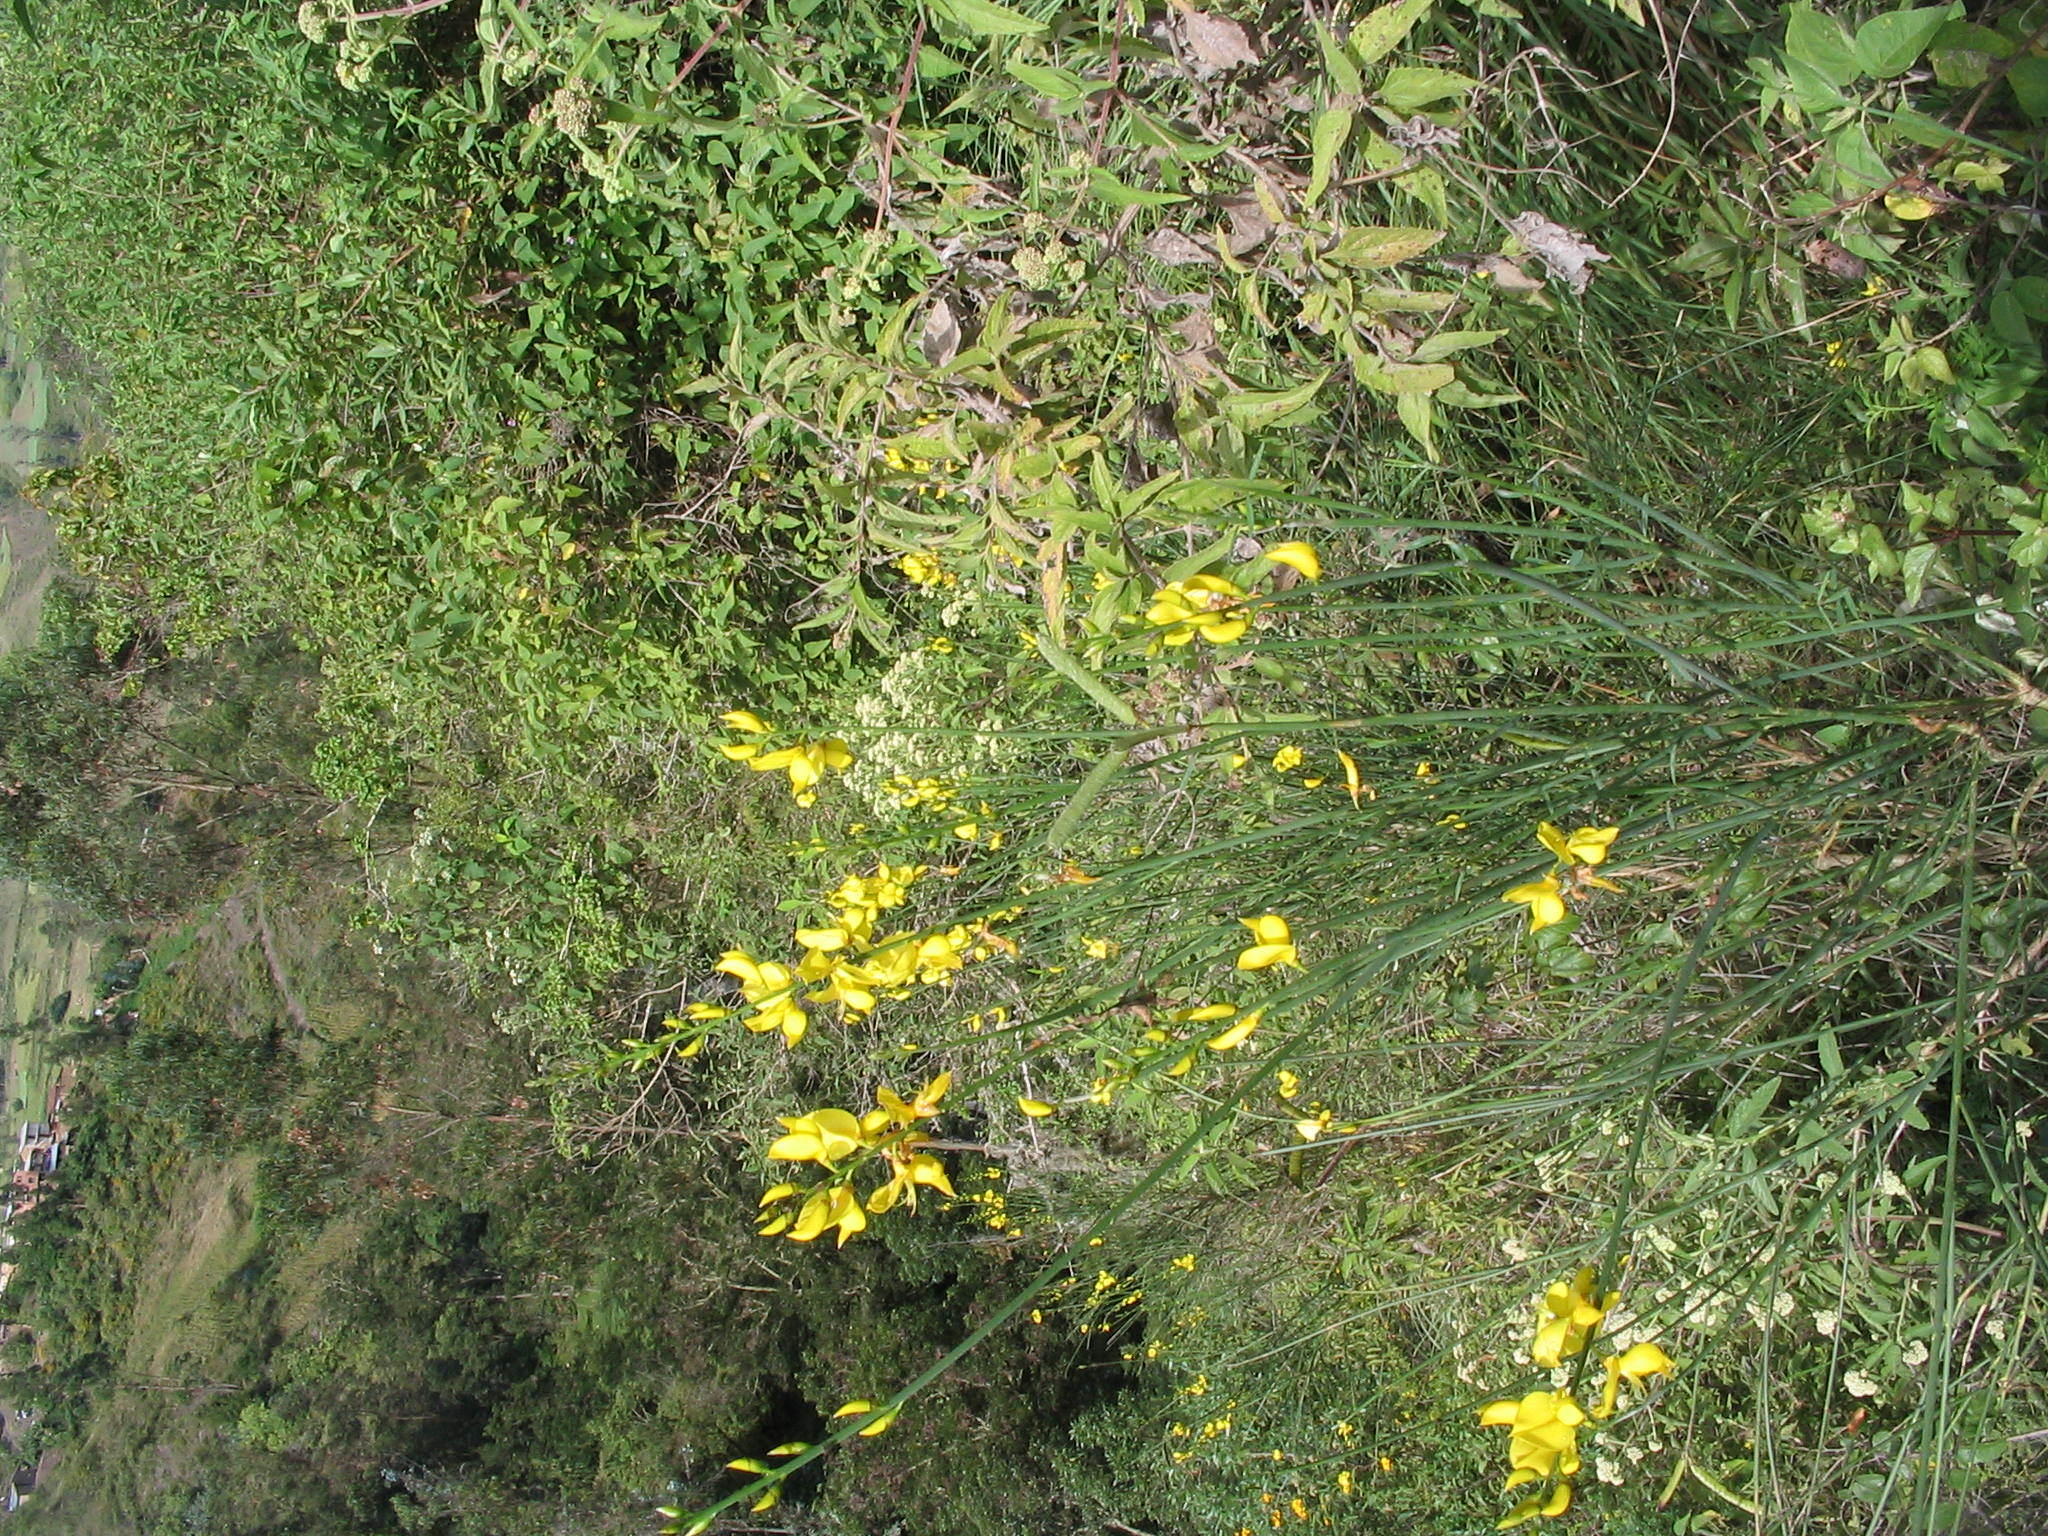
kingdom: Plantae
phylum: Tracheophyta
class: Magnoliopsida
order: Fabales
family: Fabaceae
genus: Spartium
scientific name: Spartium junceum
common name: Spanish broom
